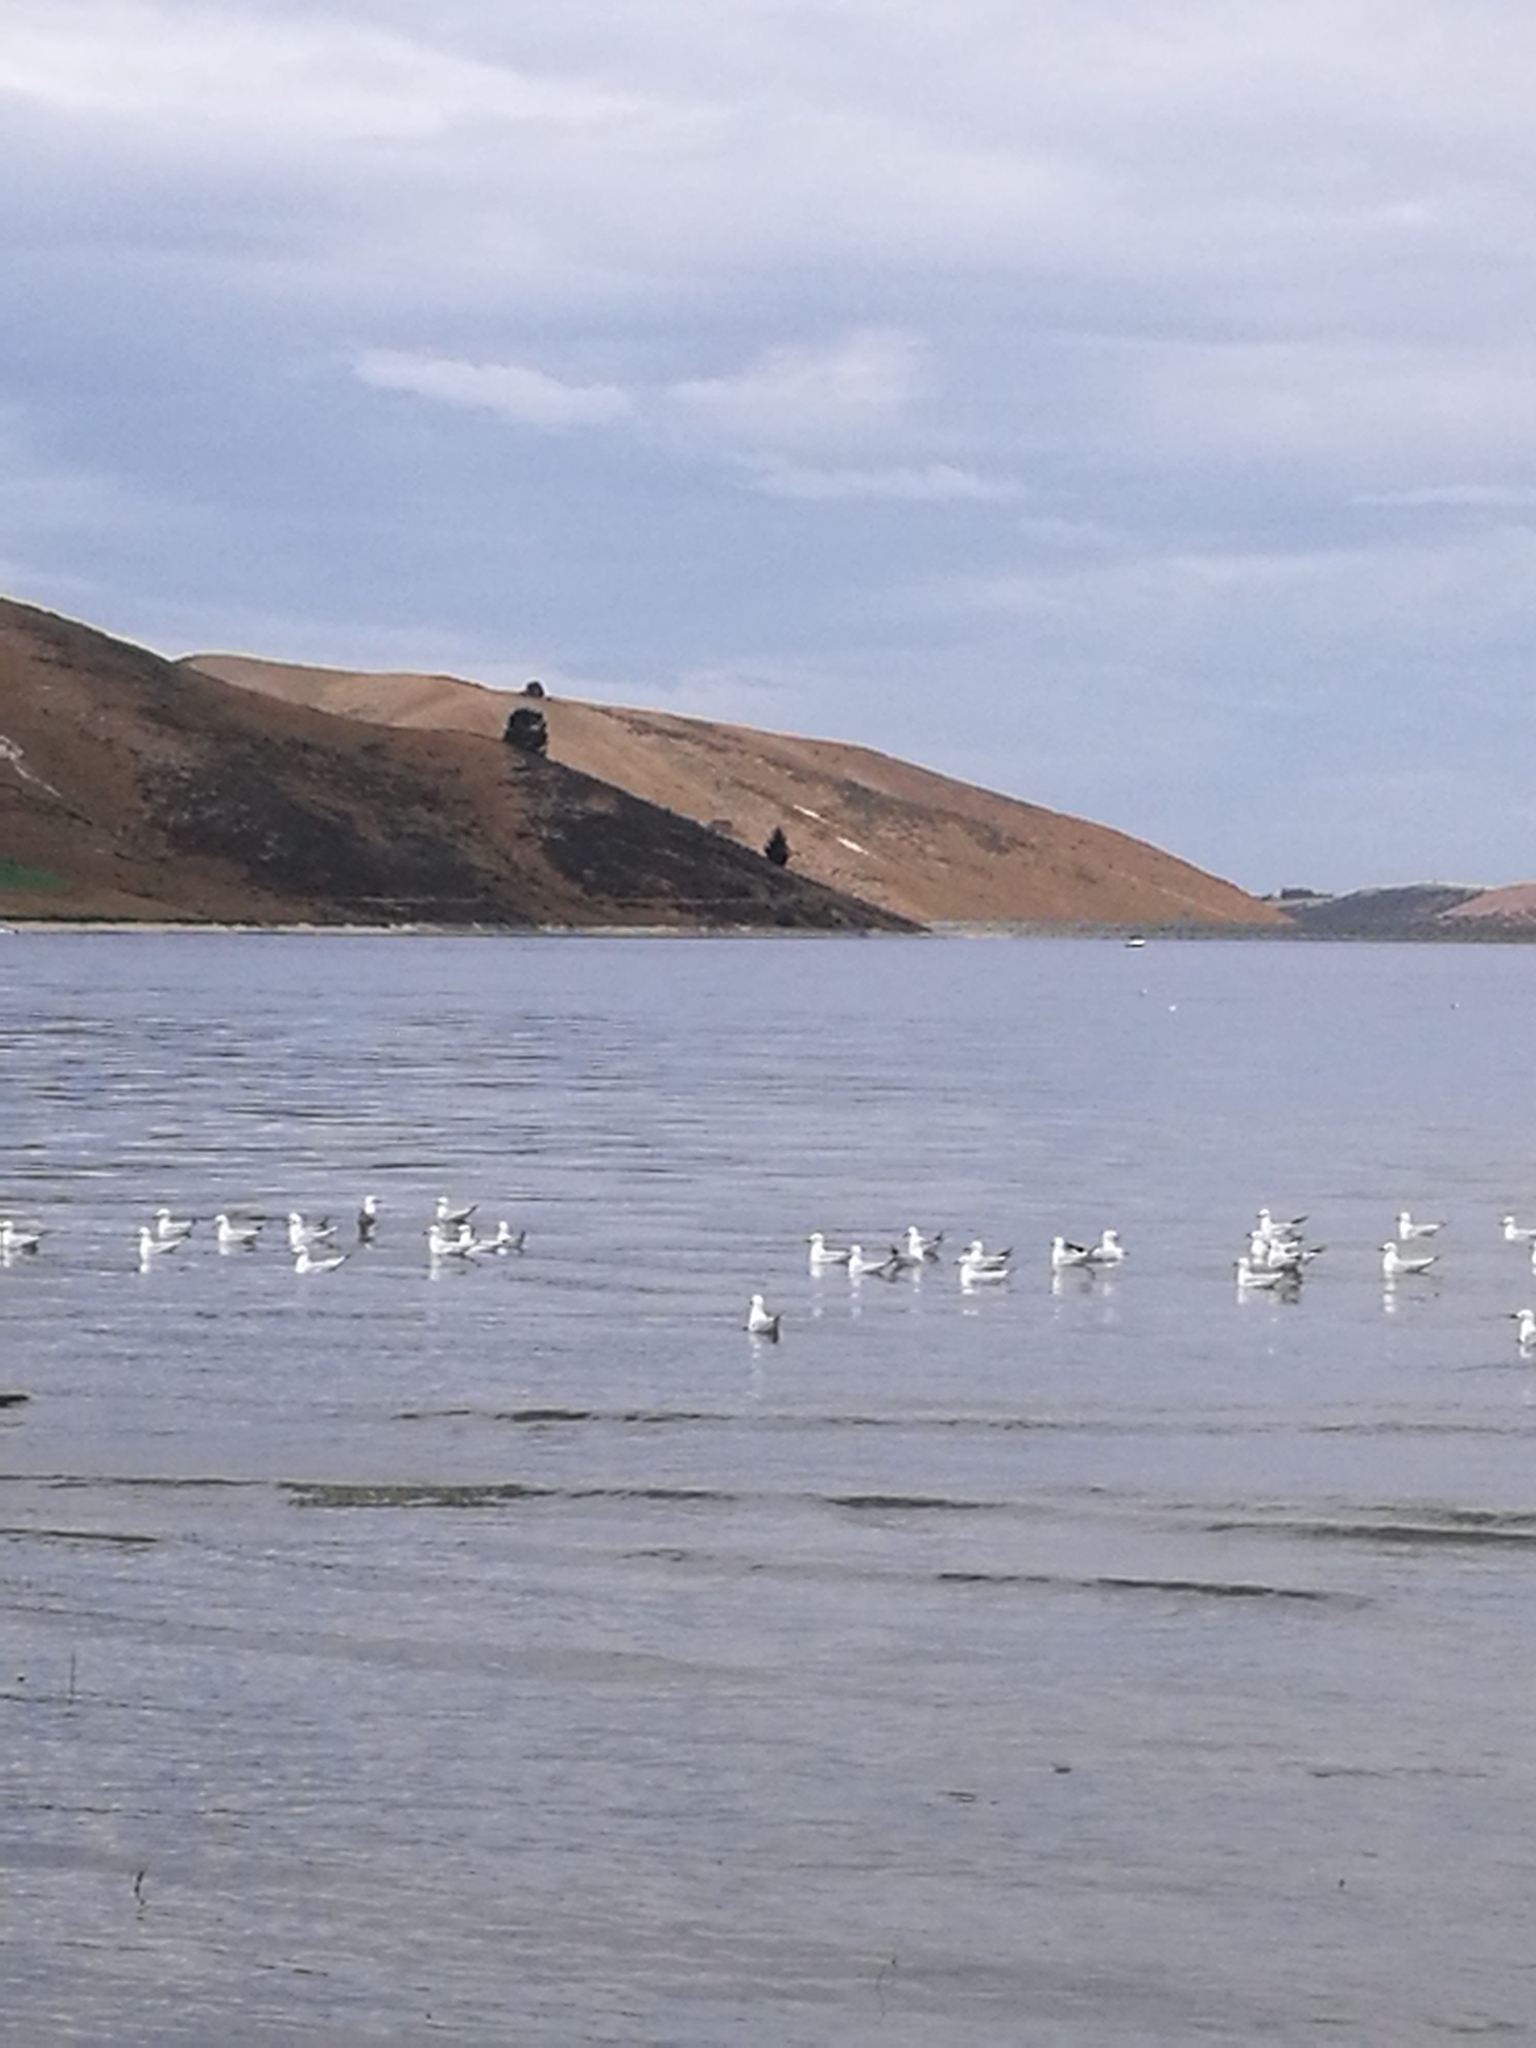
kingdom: Animalia
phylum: Chordata
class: Aves
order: Charadriiformes
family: Laridae
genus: Chroicocephalus
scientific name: Chroicocephalus bulleri
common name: Black-billed gull
